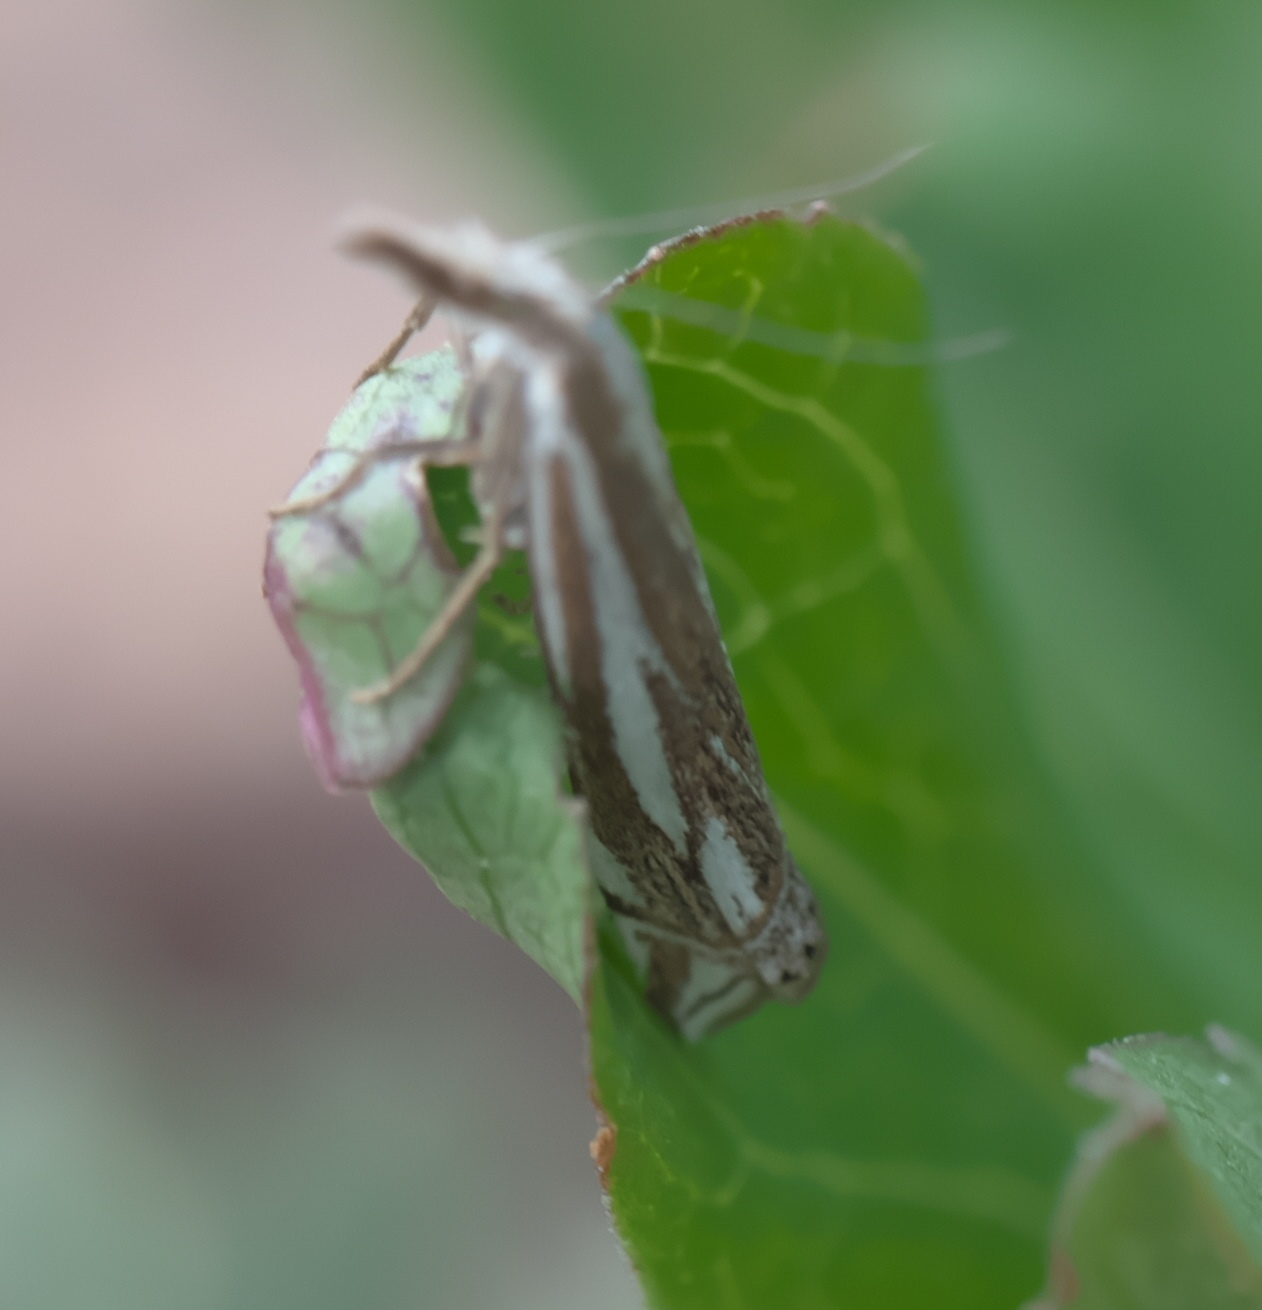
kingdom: Animalia
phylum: Arthropoda
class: Insecta
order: Lepidoptera
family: Crambidae
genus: Crambus
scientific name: Crambus whitmerellus
